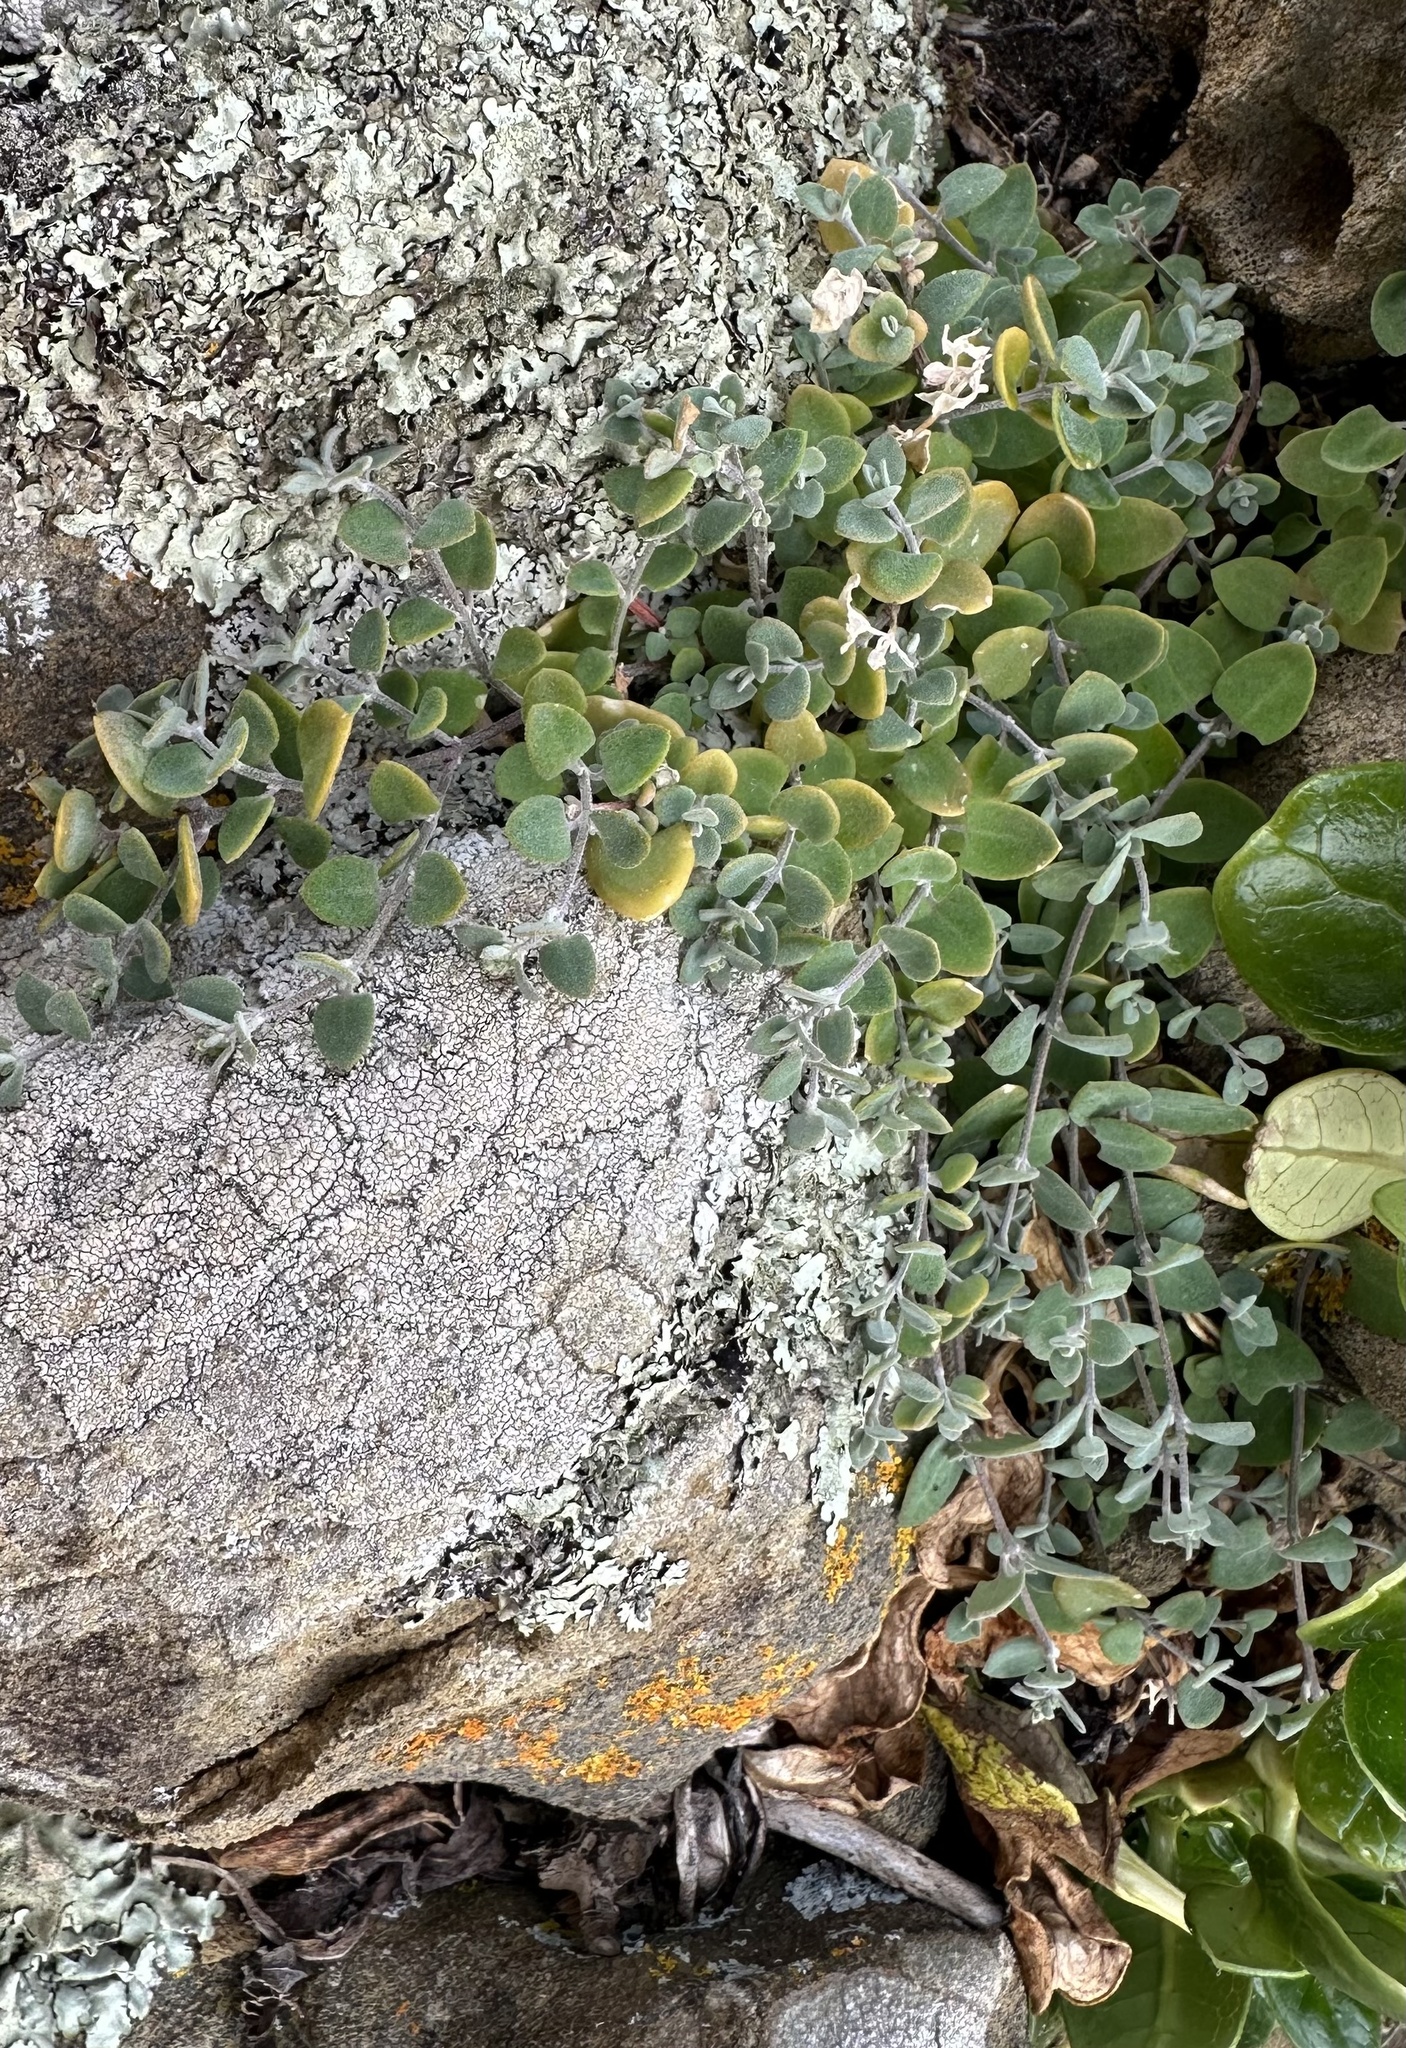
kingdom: Plantae
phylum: Tracheophyta
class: Magnoliopsida
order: Caryophyllales
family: Amaranthaceae
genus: Chenopodium
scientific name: Chenopodium triandrum
